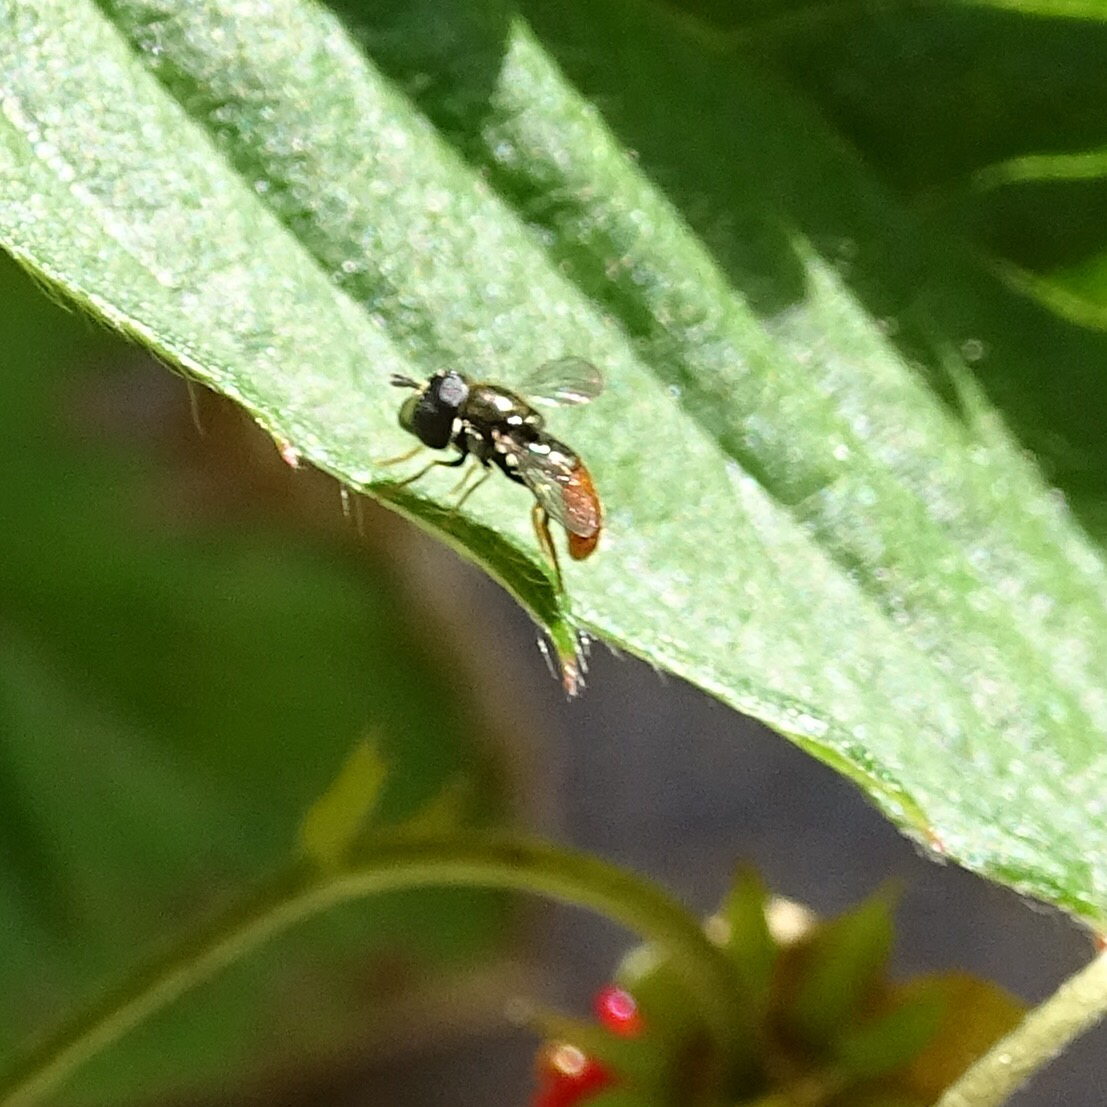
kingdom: Animalia
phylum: Arthropoda
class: Insecta
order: Diptera
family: Syrphidae
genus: Paragus
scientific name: Paragus haemorrhous
